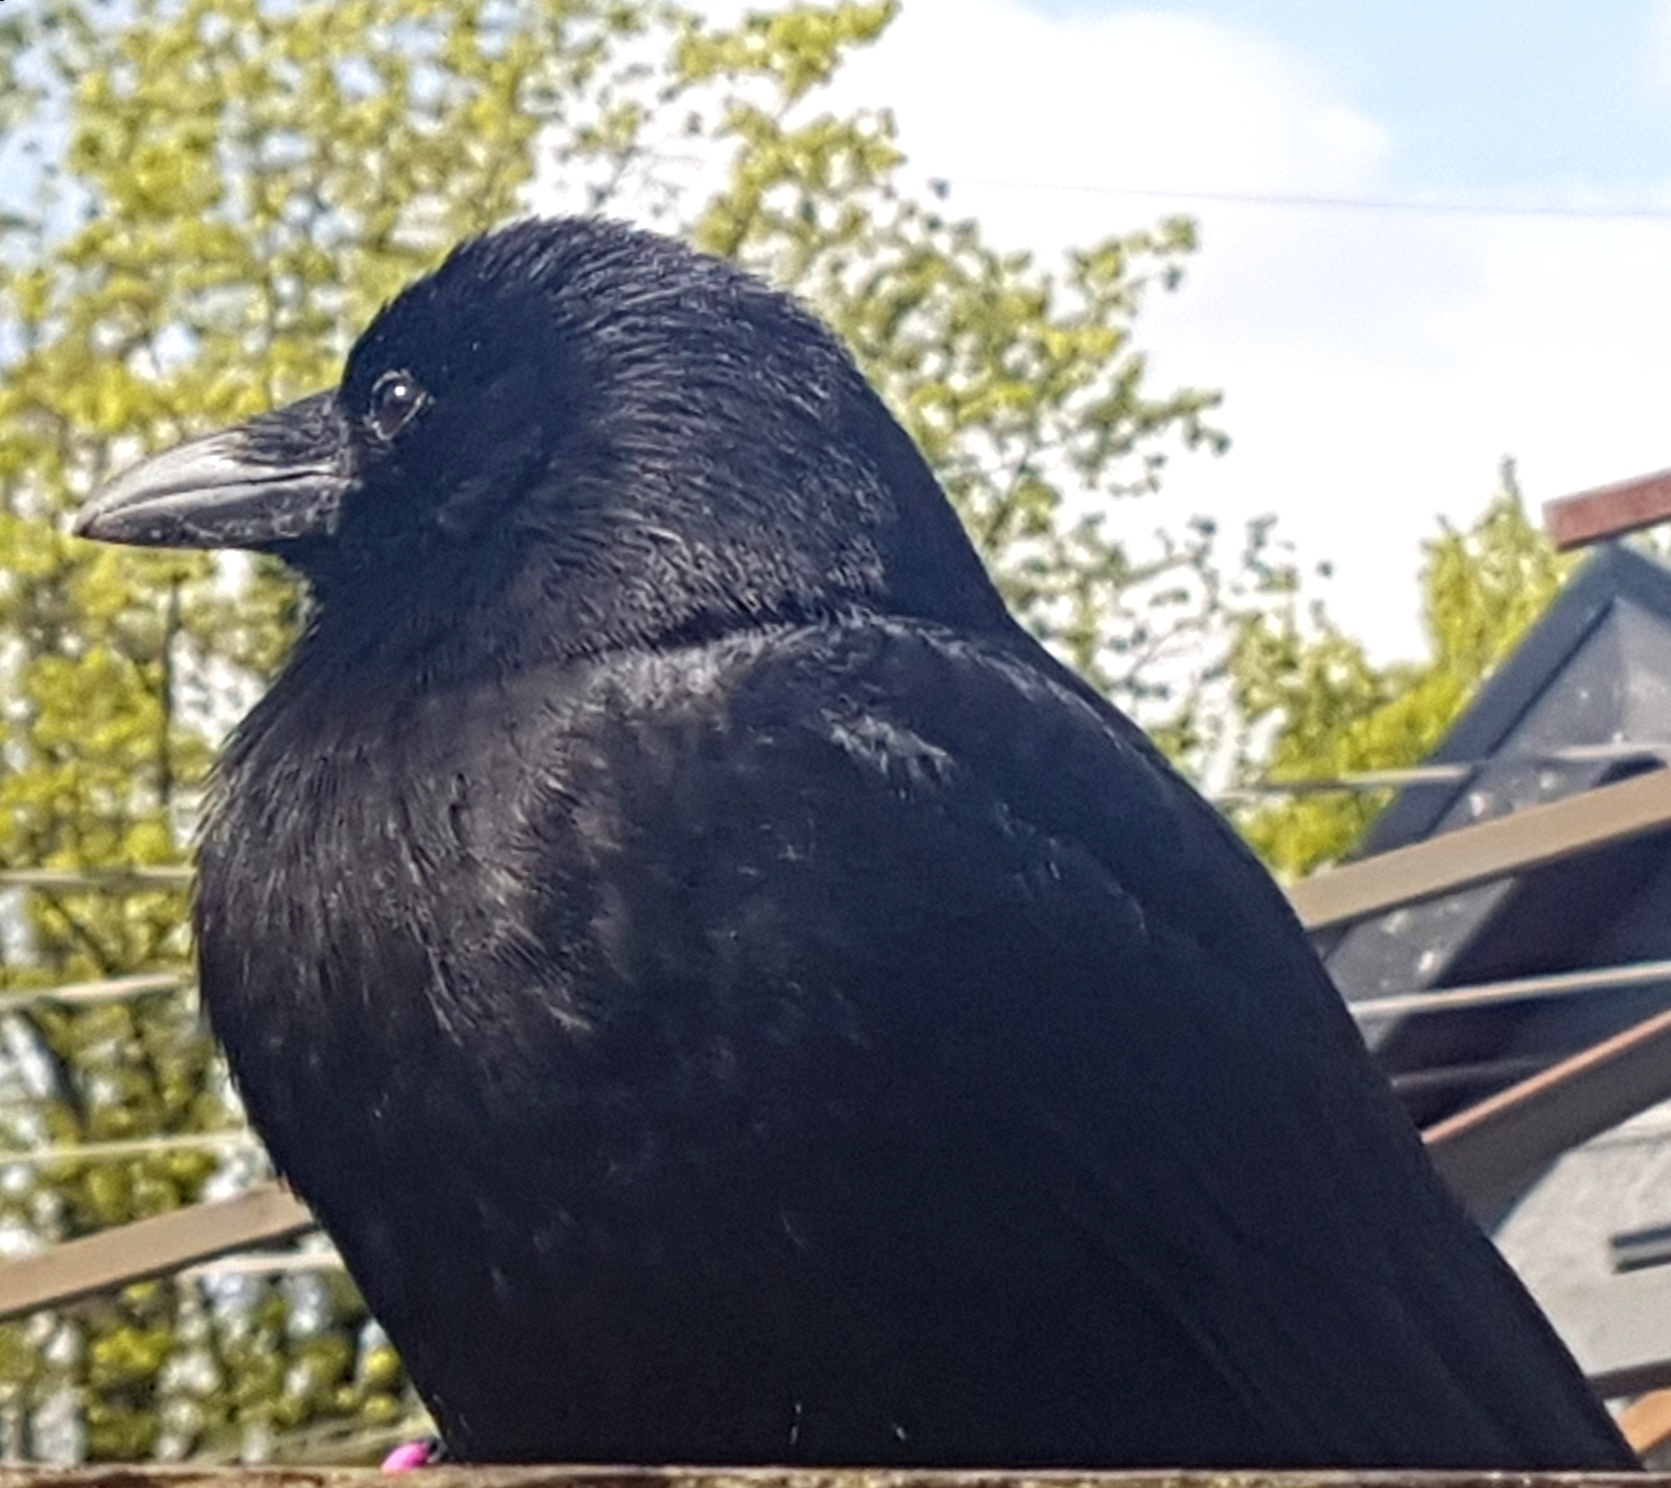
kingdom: Animalia
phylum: Chordata
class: Aves
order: Passeriformes
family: Corvidae
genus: Corvus
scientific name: Corvus brachyrhynchos
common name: American crow
